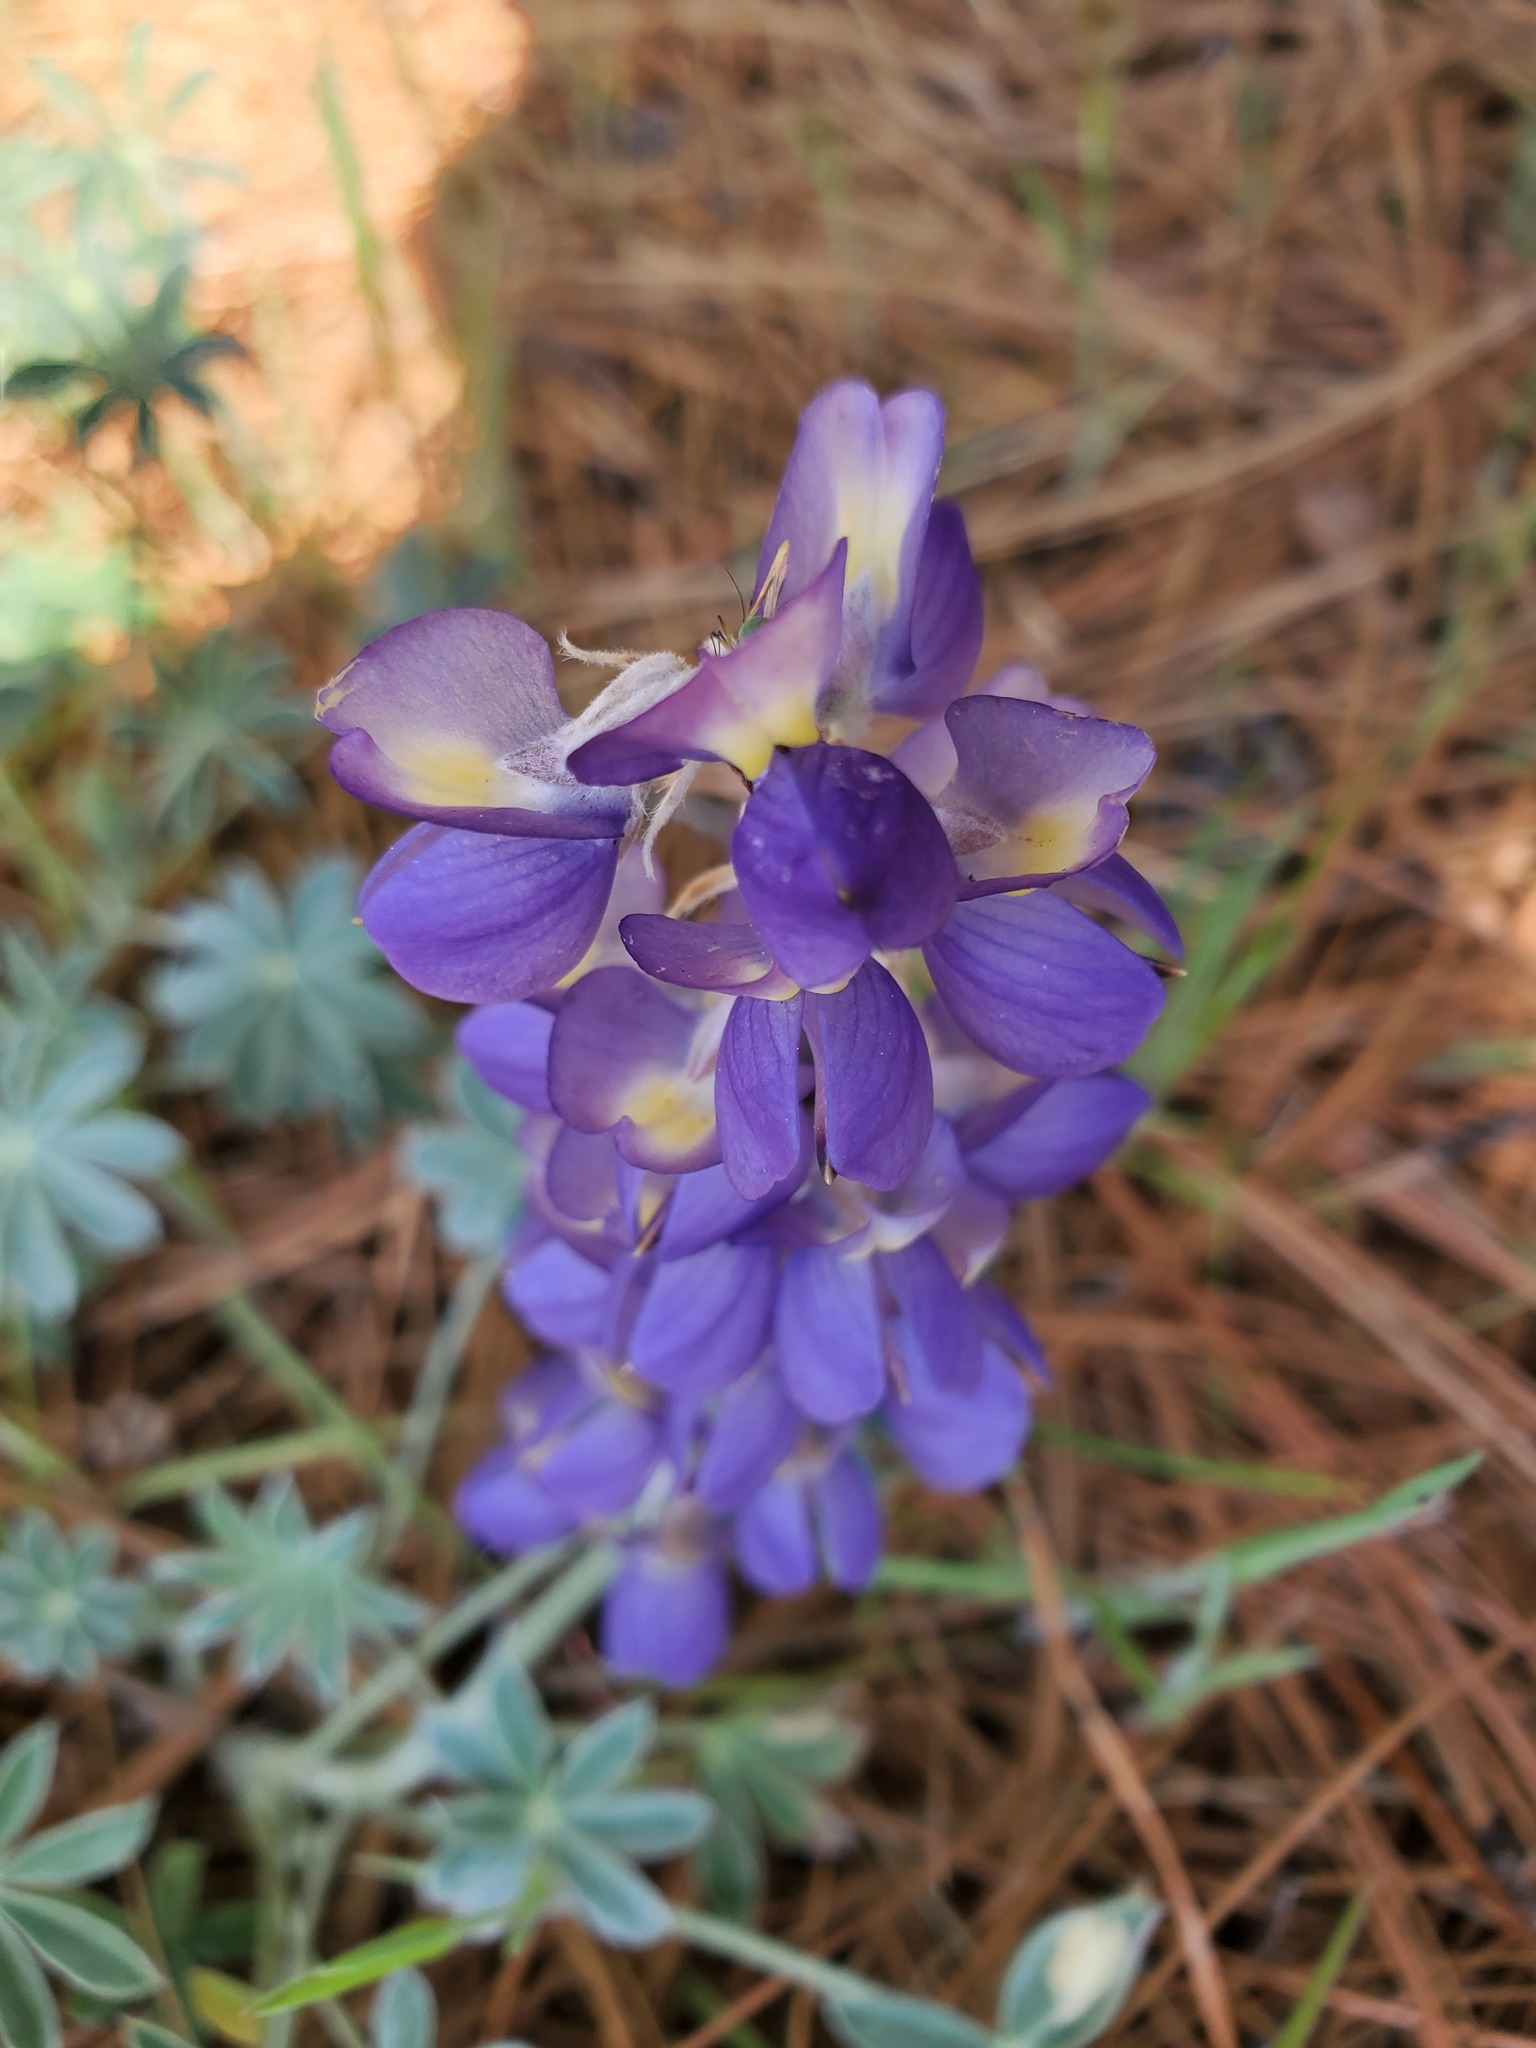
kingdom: Plantae
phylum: Tracheophyta
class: Magnoliopsida
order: Fabales
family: Fabaceae
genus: Lupinus
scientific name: Lupinus grayi
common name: Sierra lupine
